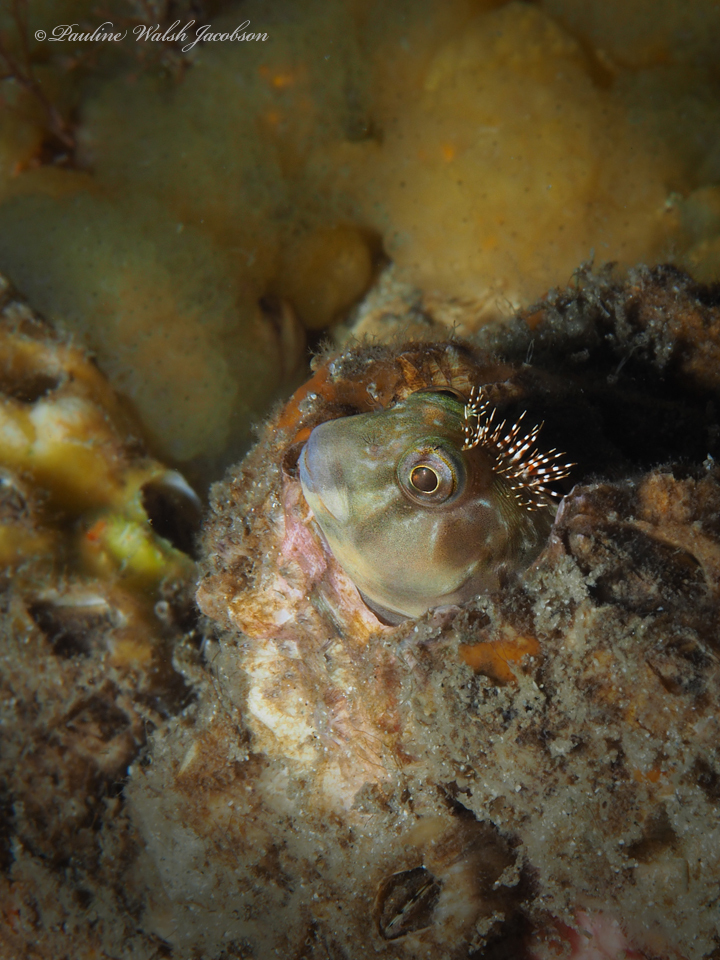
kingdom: Animalia
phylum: Chordata
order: Perciformes
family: Blenniidae
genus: Scartella
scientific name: Scartella cristata
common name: Molly miller
